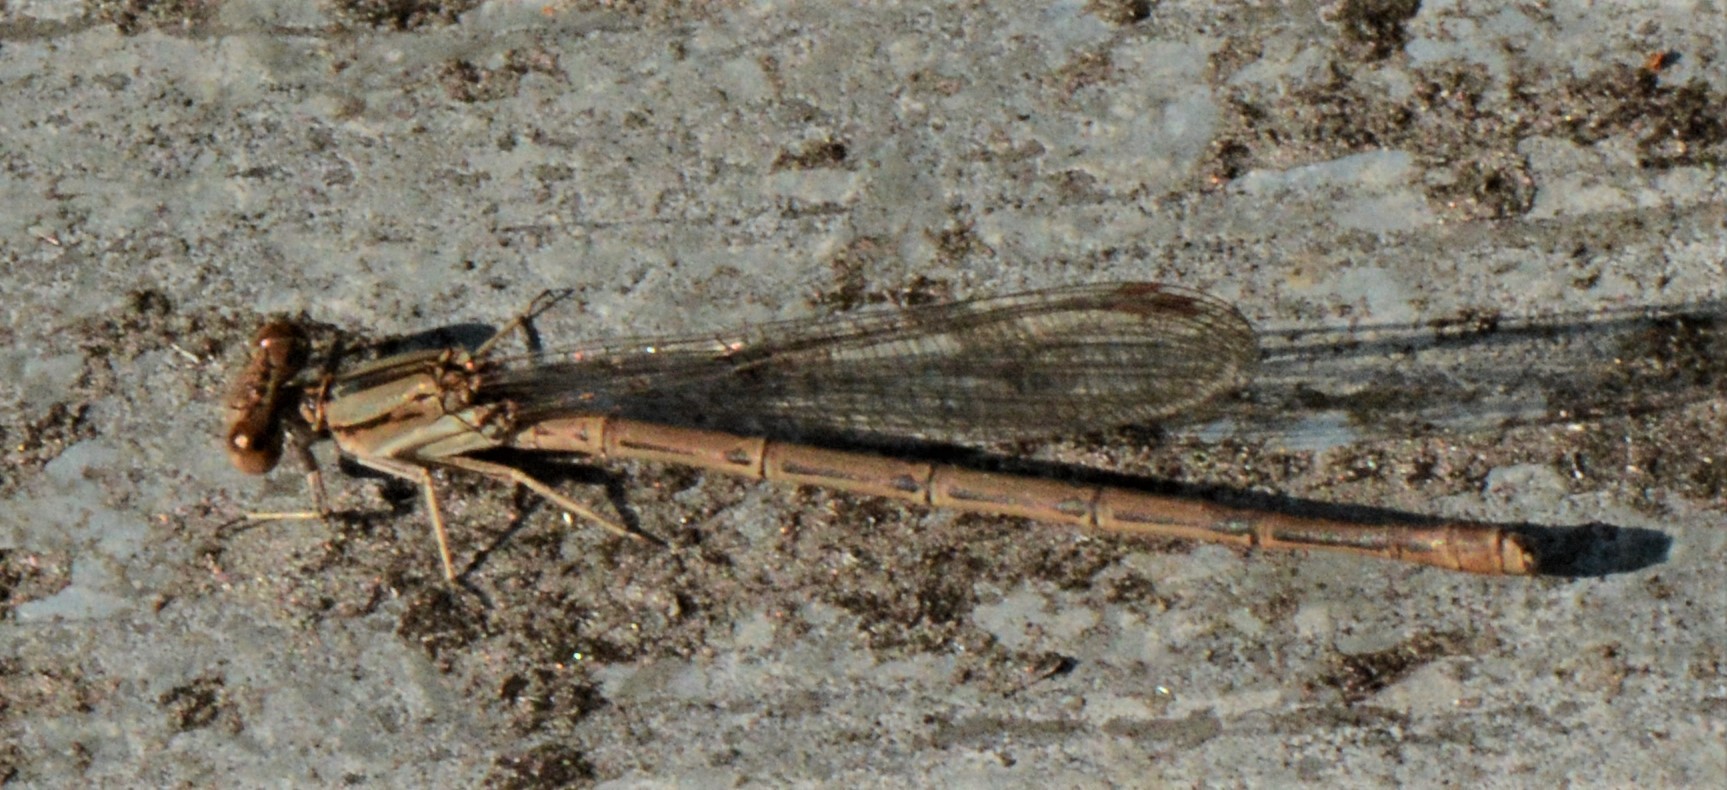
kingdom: Animalia
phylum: Arthropoda
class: Insecta
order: Odonata
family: Coenagrionidae
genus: Argia
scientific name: Argia fumipennis
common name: Variable dancer
